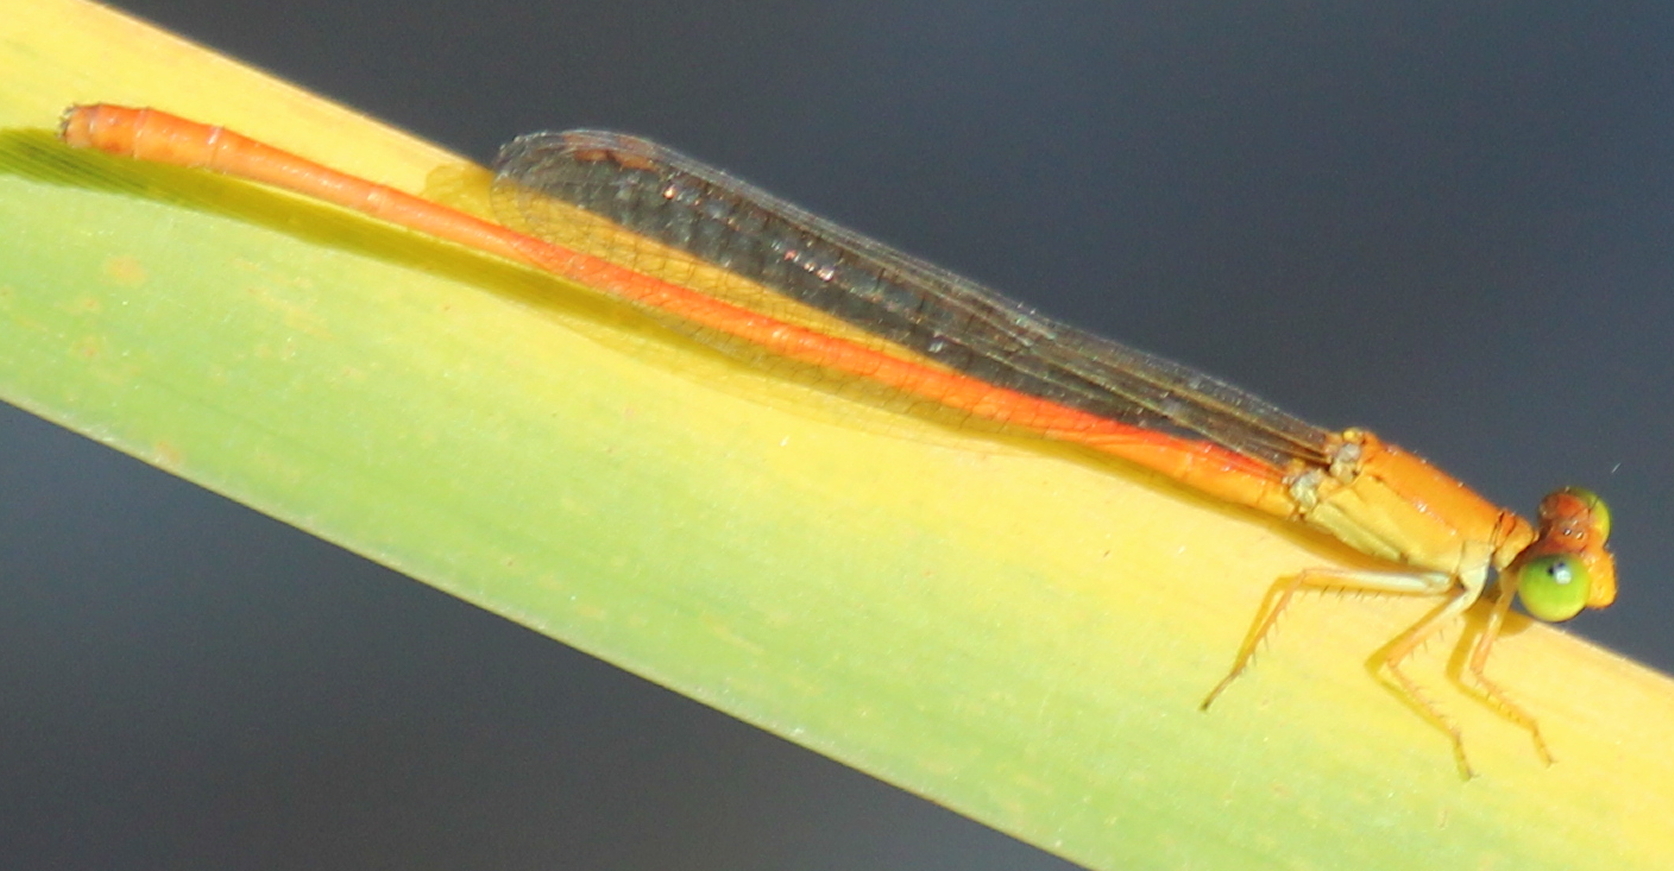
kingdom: Animalia
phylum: Arthropoda
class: Insecta
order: Odonata
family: Coenagrionidae
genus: Ceriagrion
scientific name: Ceriagrion glabrum
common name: Common pond damsel
